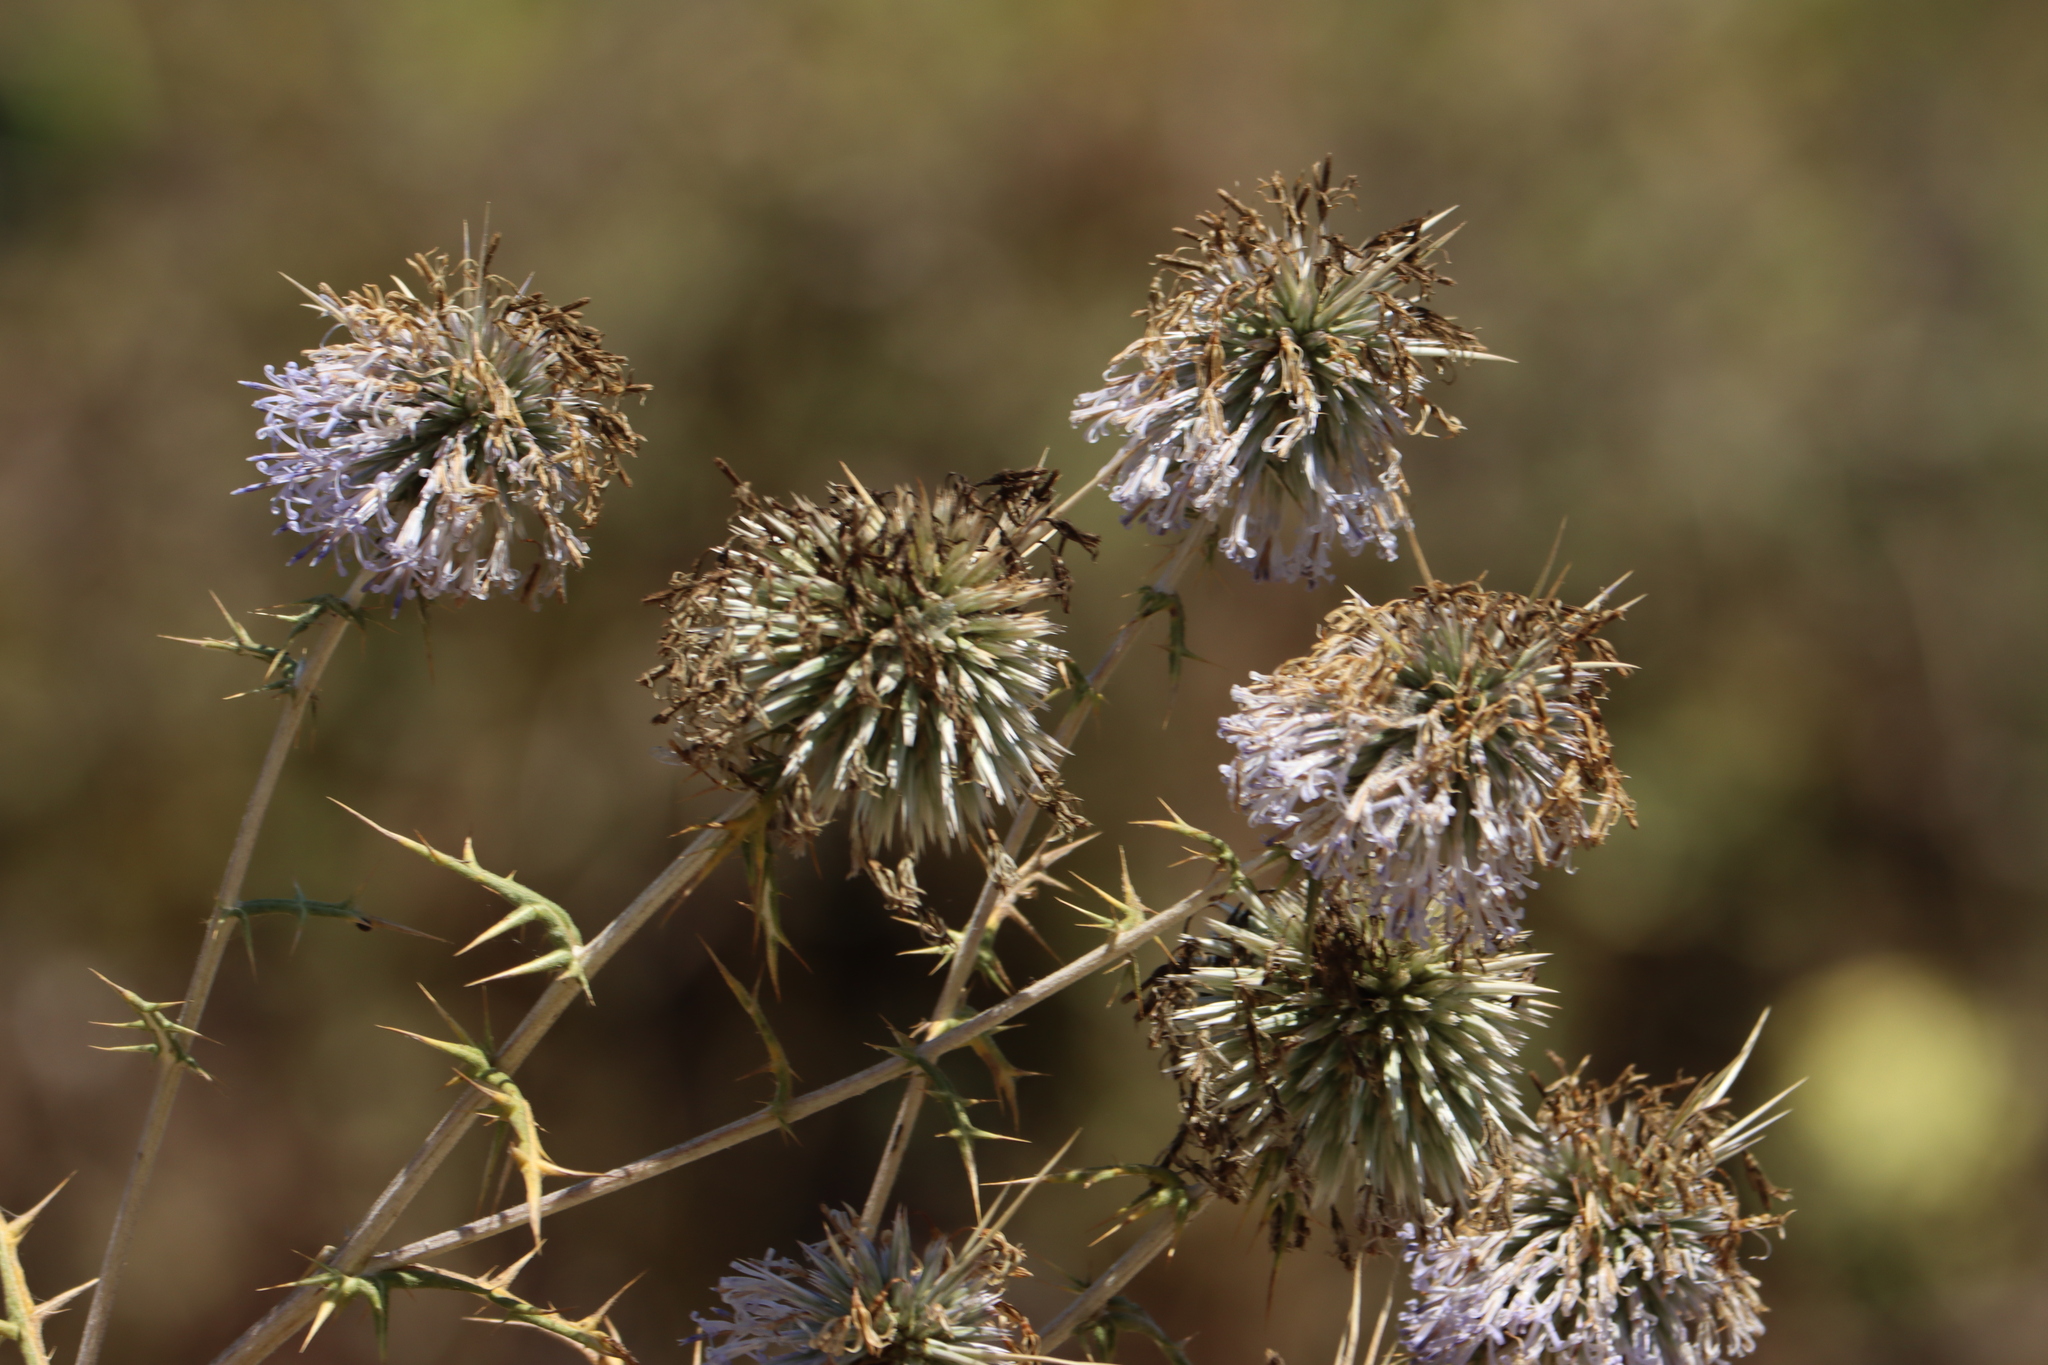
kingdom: Plantae
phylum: Tracheophyta
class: Magnoliopsida
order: Asterales
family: Asteraceae
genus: Echinops
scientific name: Echinops spinosissimus
